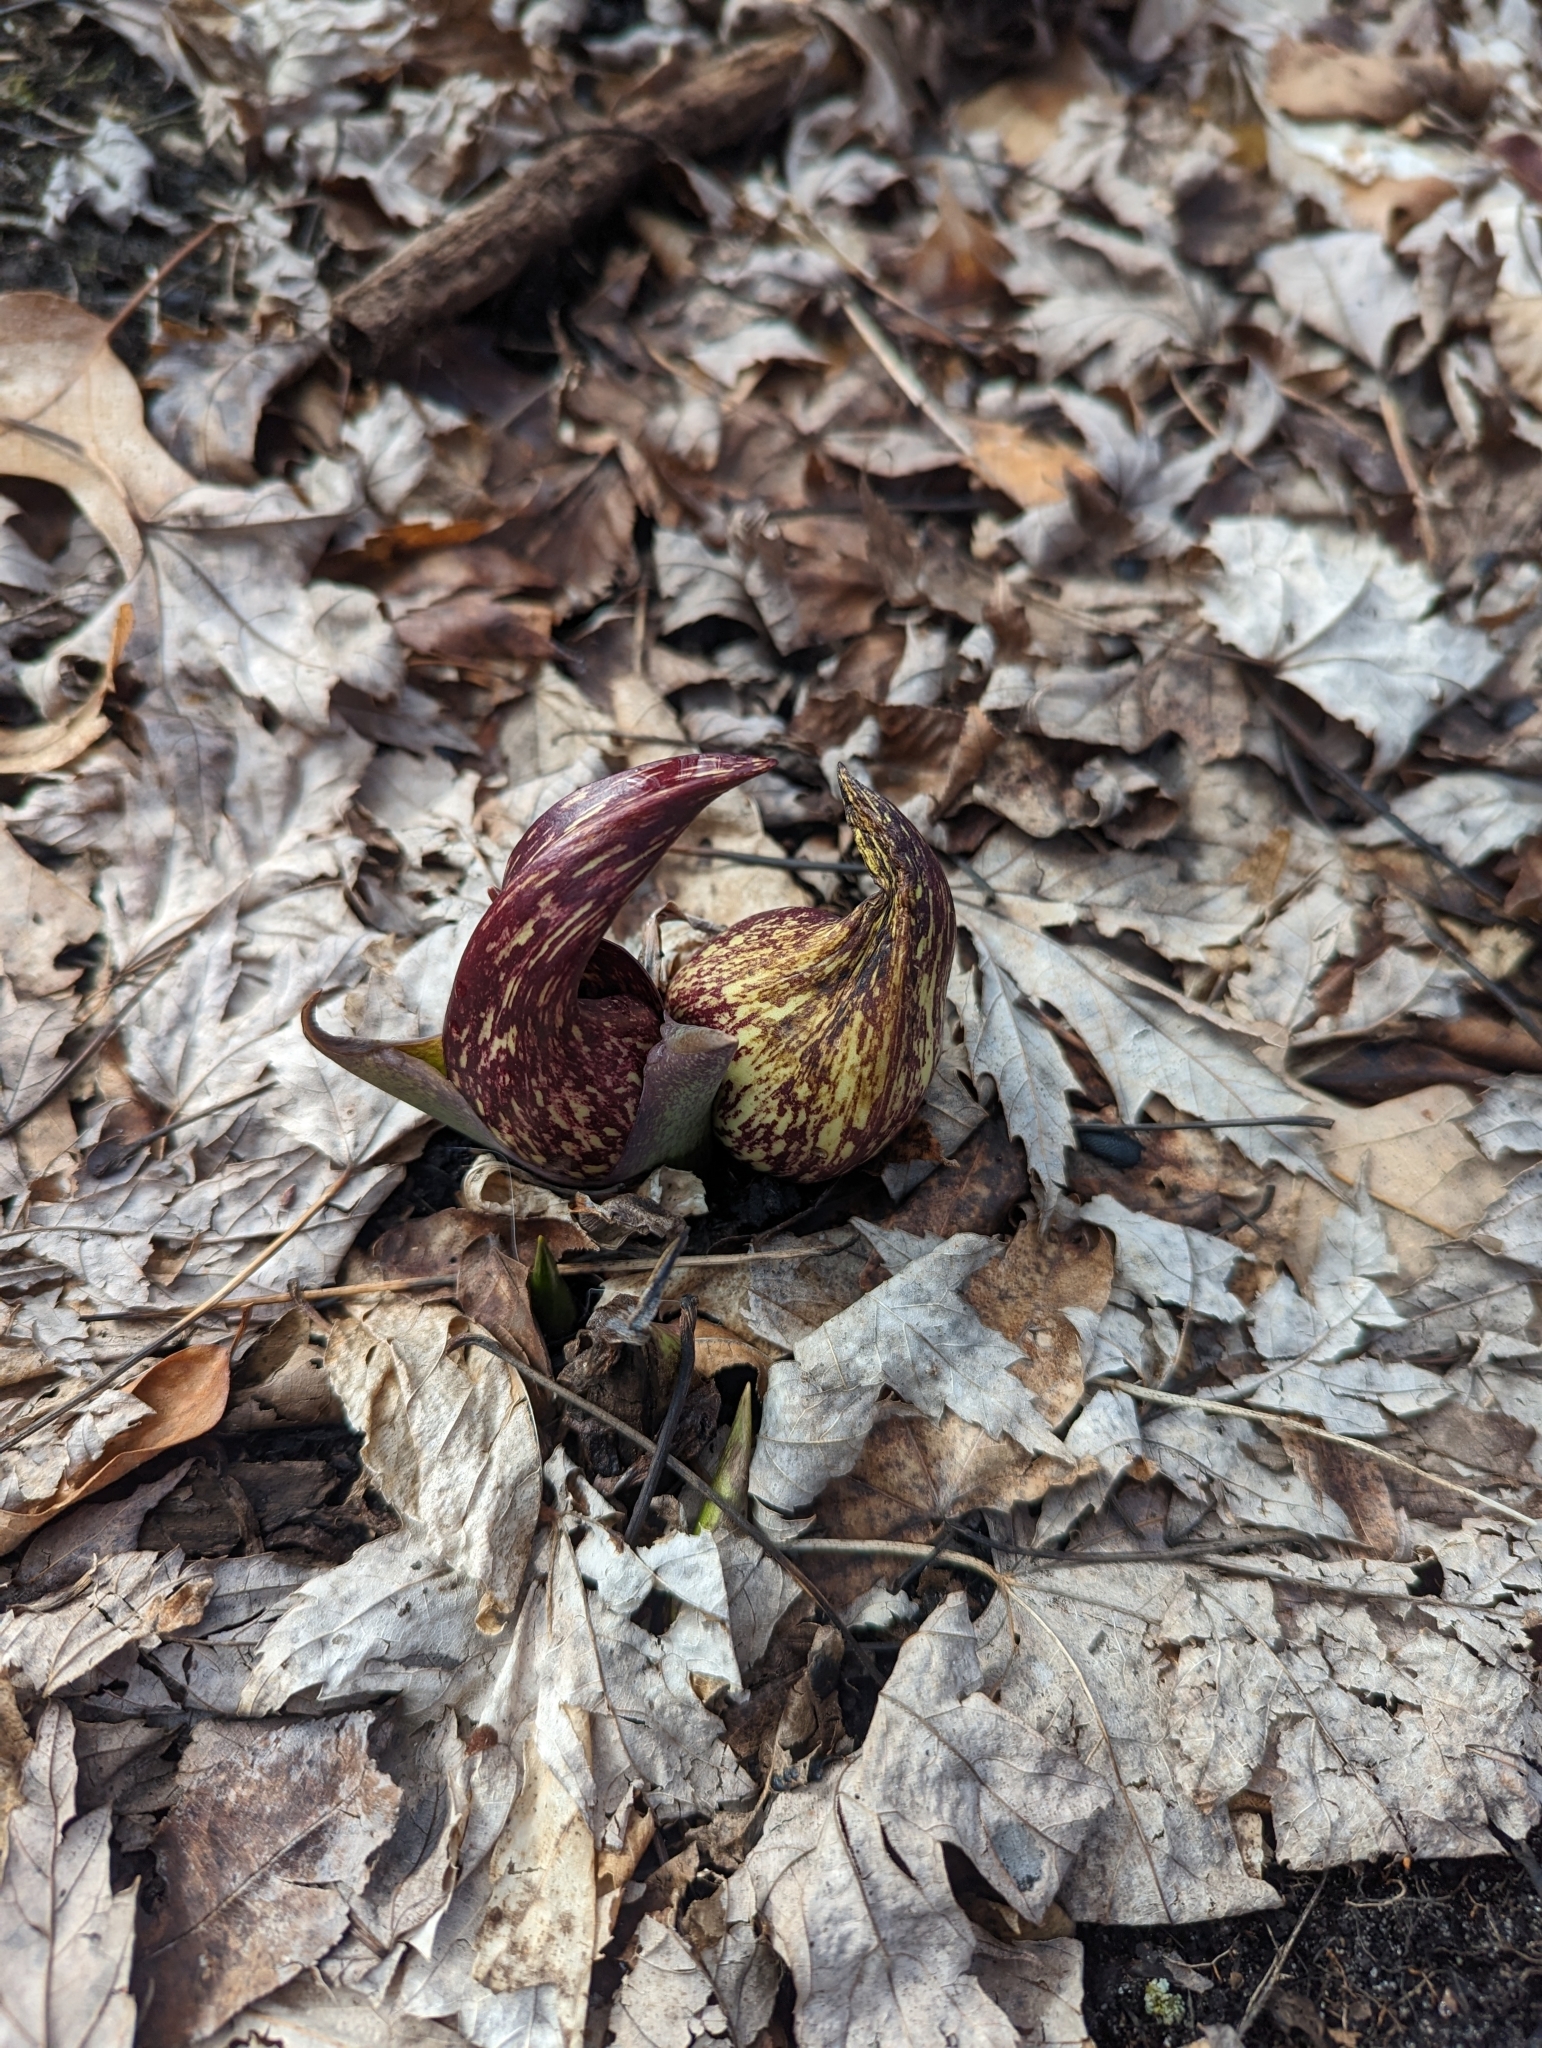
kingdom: Plantae
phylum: Tracheophyta
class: Liliopsida
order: Alismatales
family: Araceae
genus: Symplocarpus
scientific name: Symplocarpus foetidus
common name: Eastern skunk cabbage
